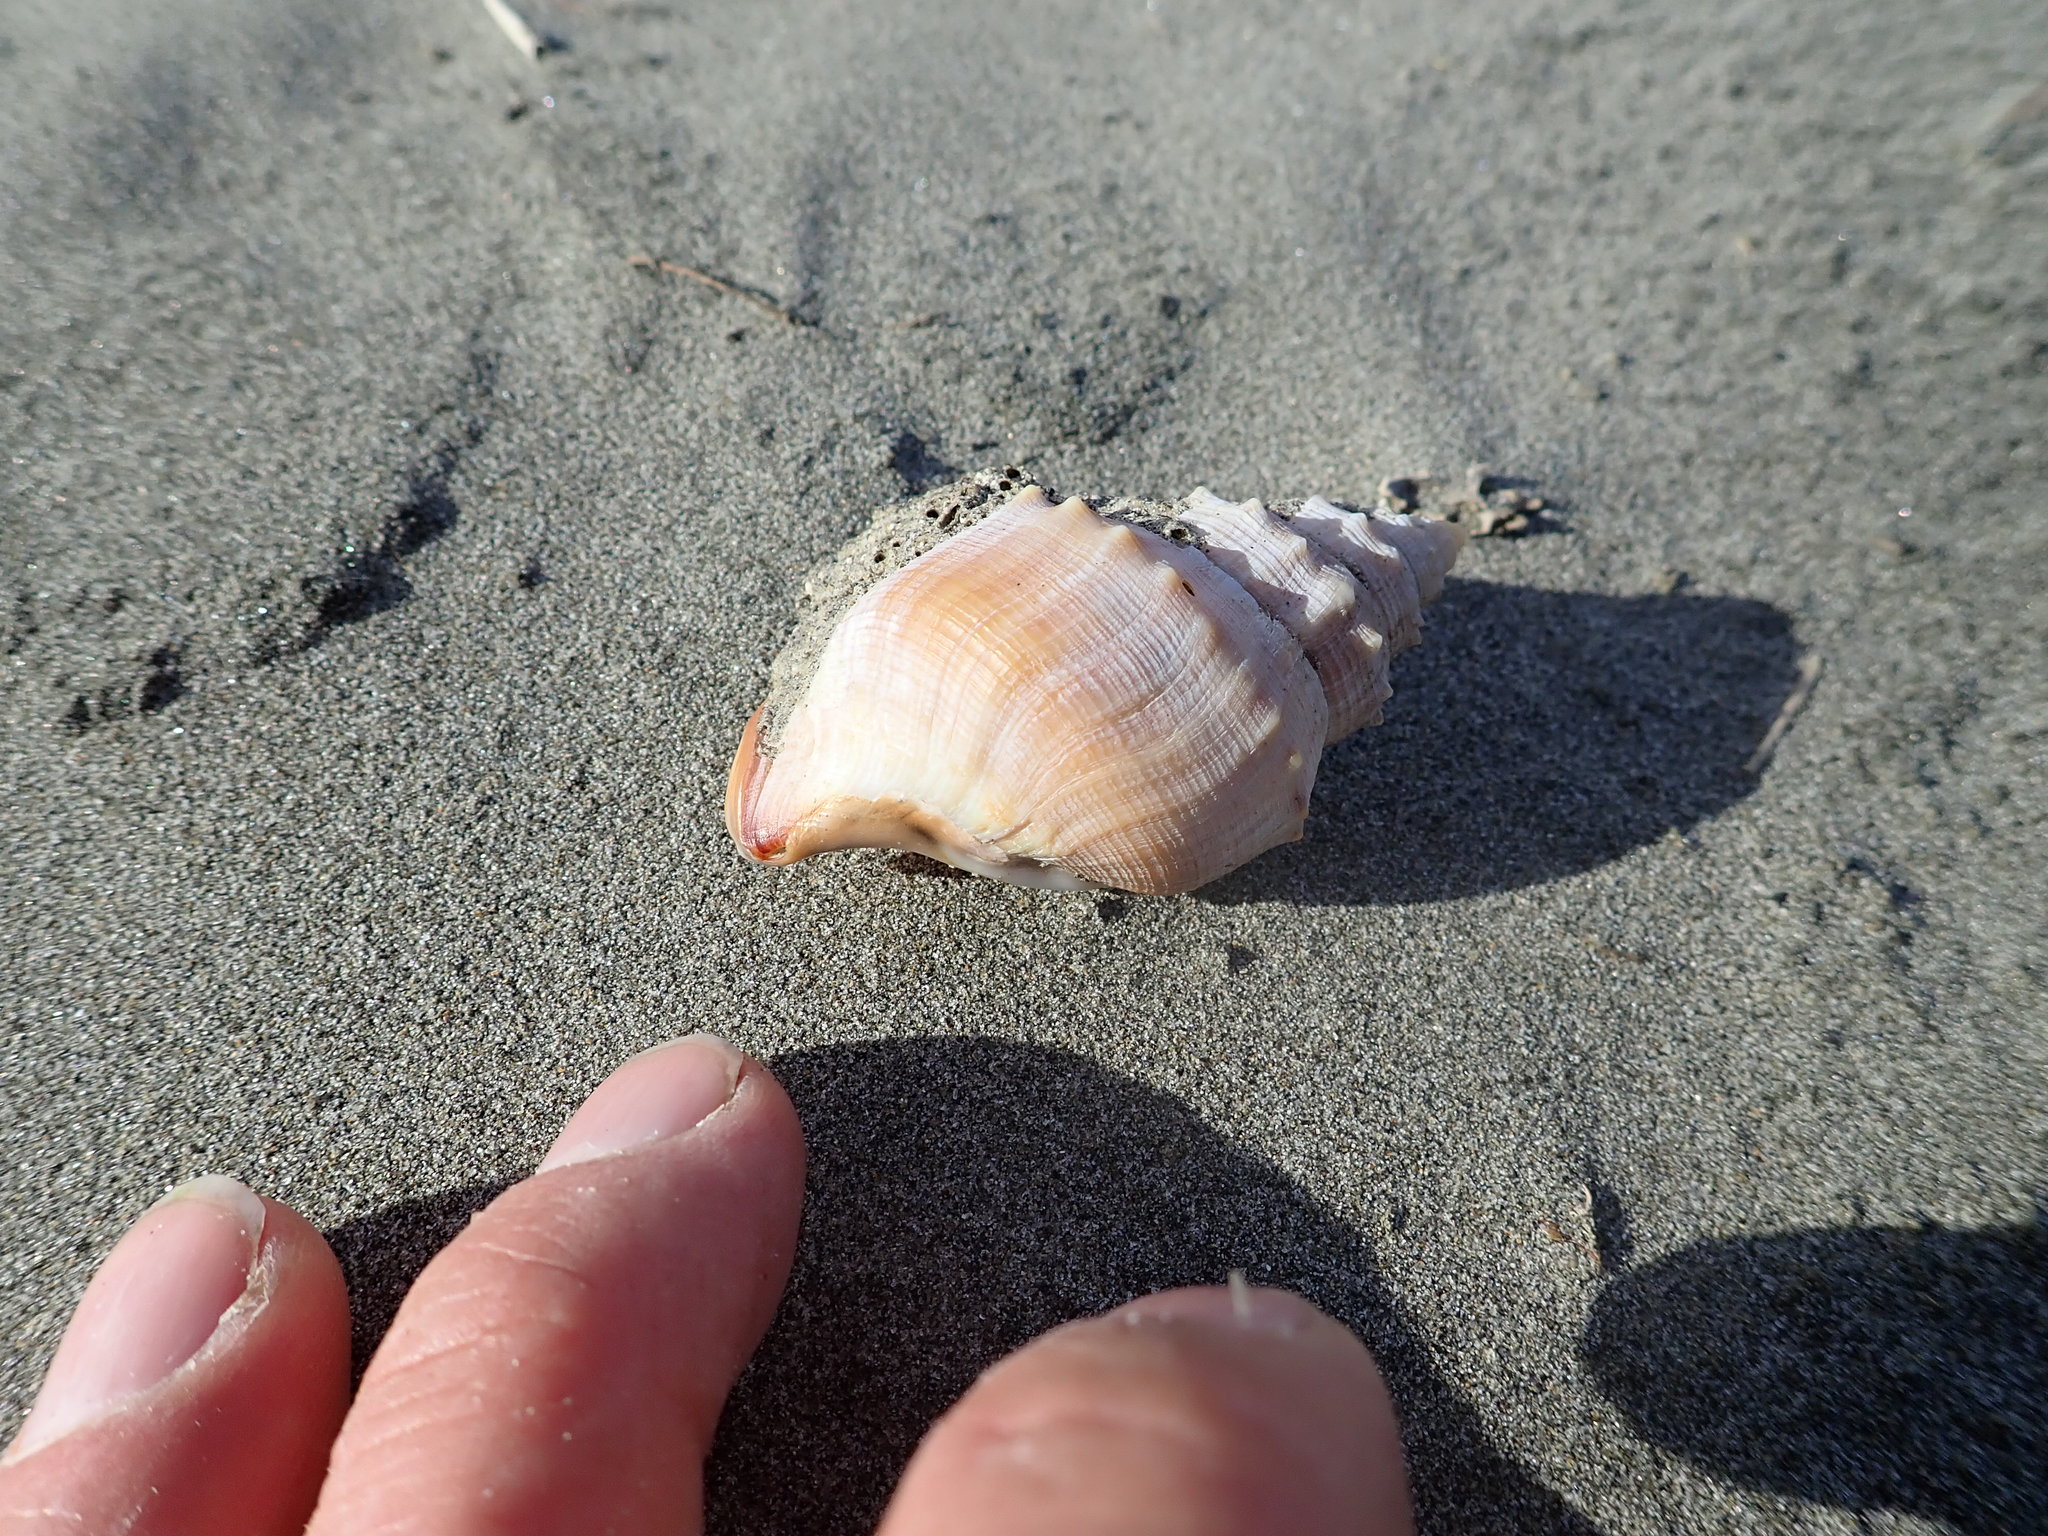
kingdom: Animalia
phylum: Mollusca
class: Gastropoda
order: Littorinimorpha
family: Struthiolariidae
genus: Struthiolaria
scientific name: Struthiolaria papulosa
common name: Large ostrich foot
